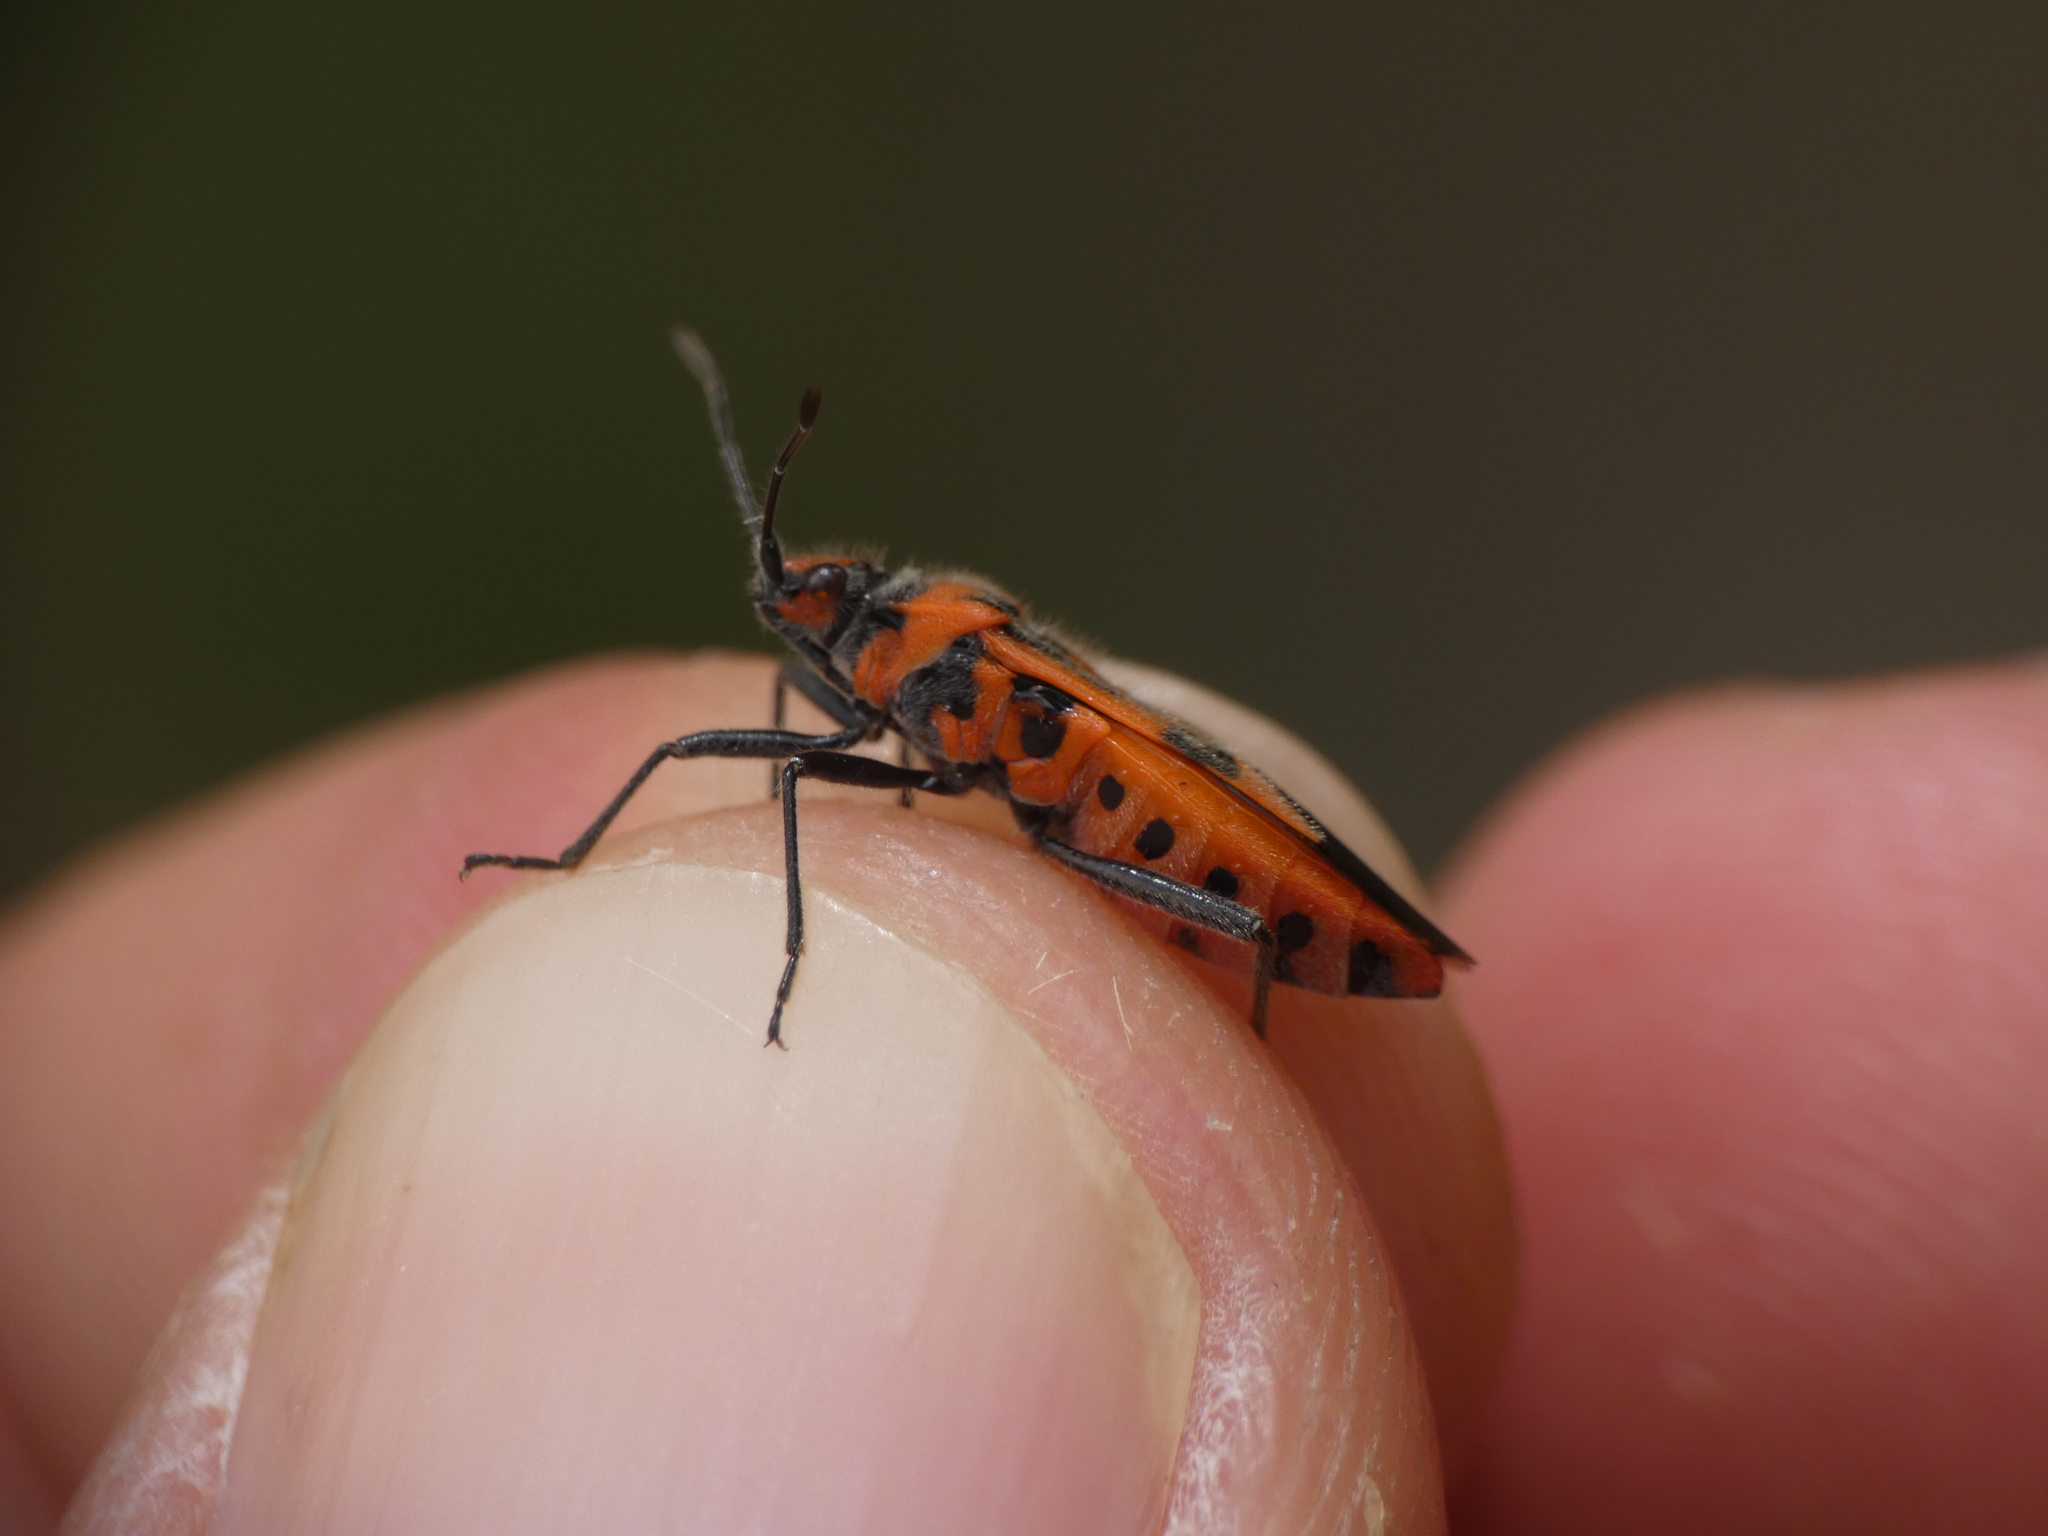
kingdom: Animalia
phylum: Arthropoda
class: Insecta
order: Hemiptera
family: Rhopalidae
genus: Corizus
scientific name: Corizus hyoscyami
